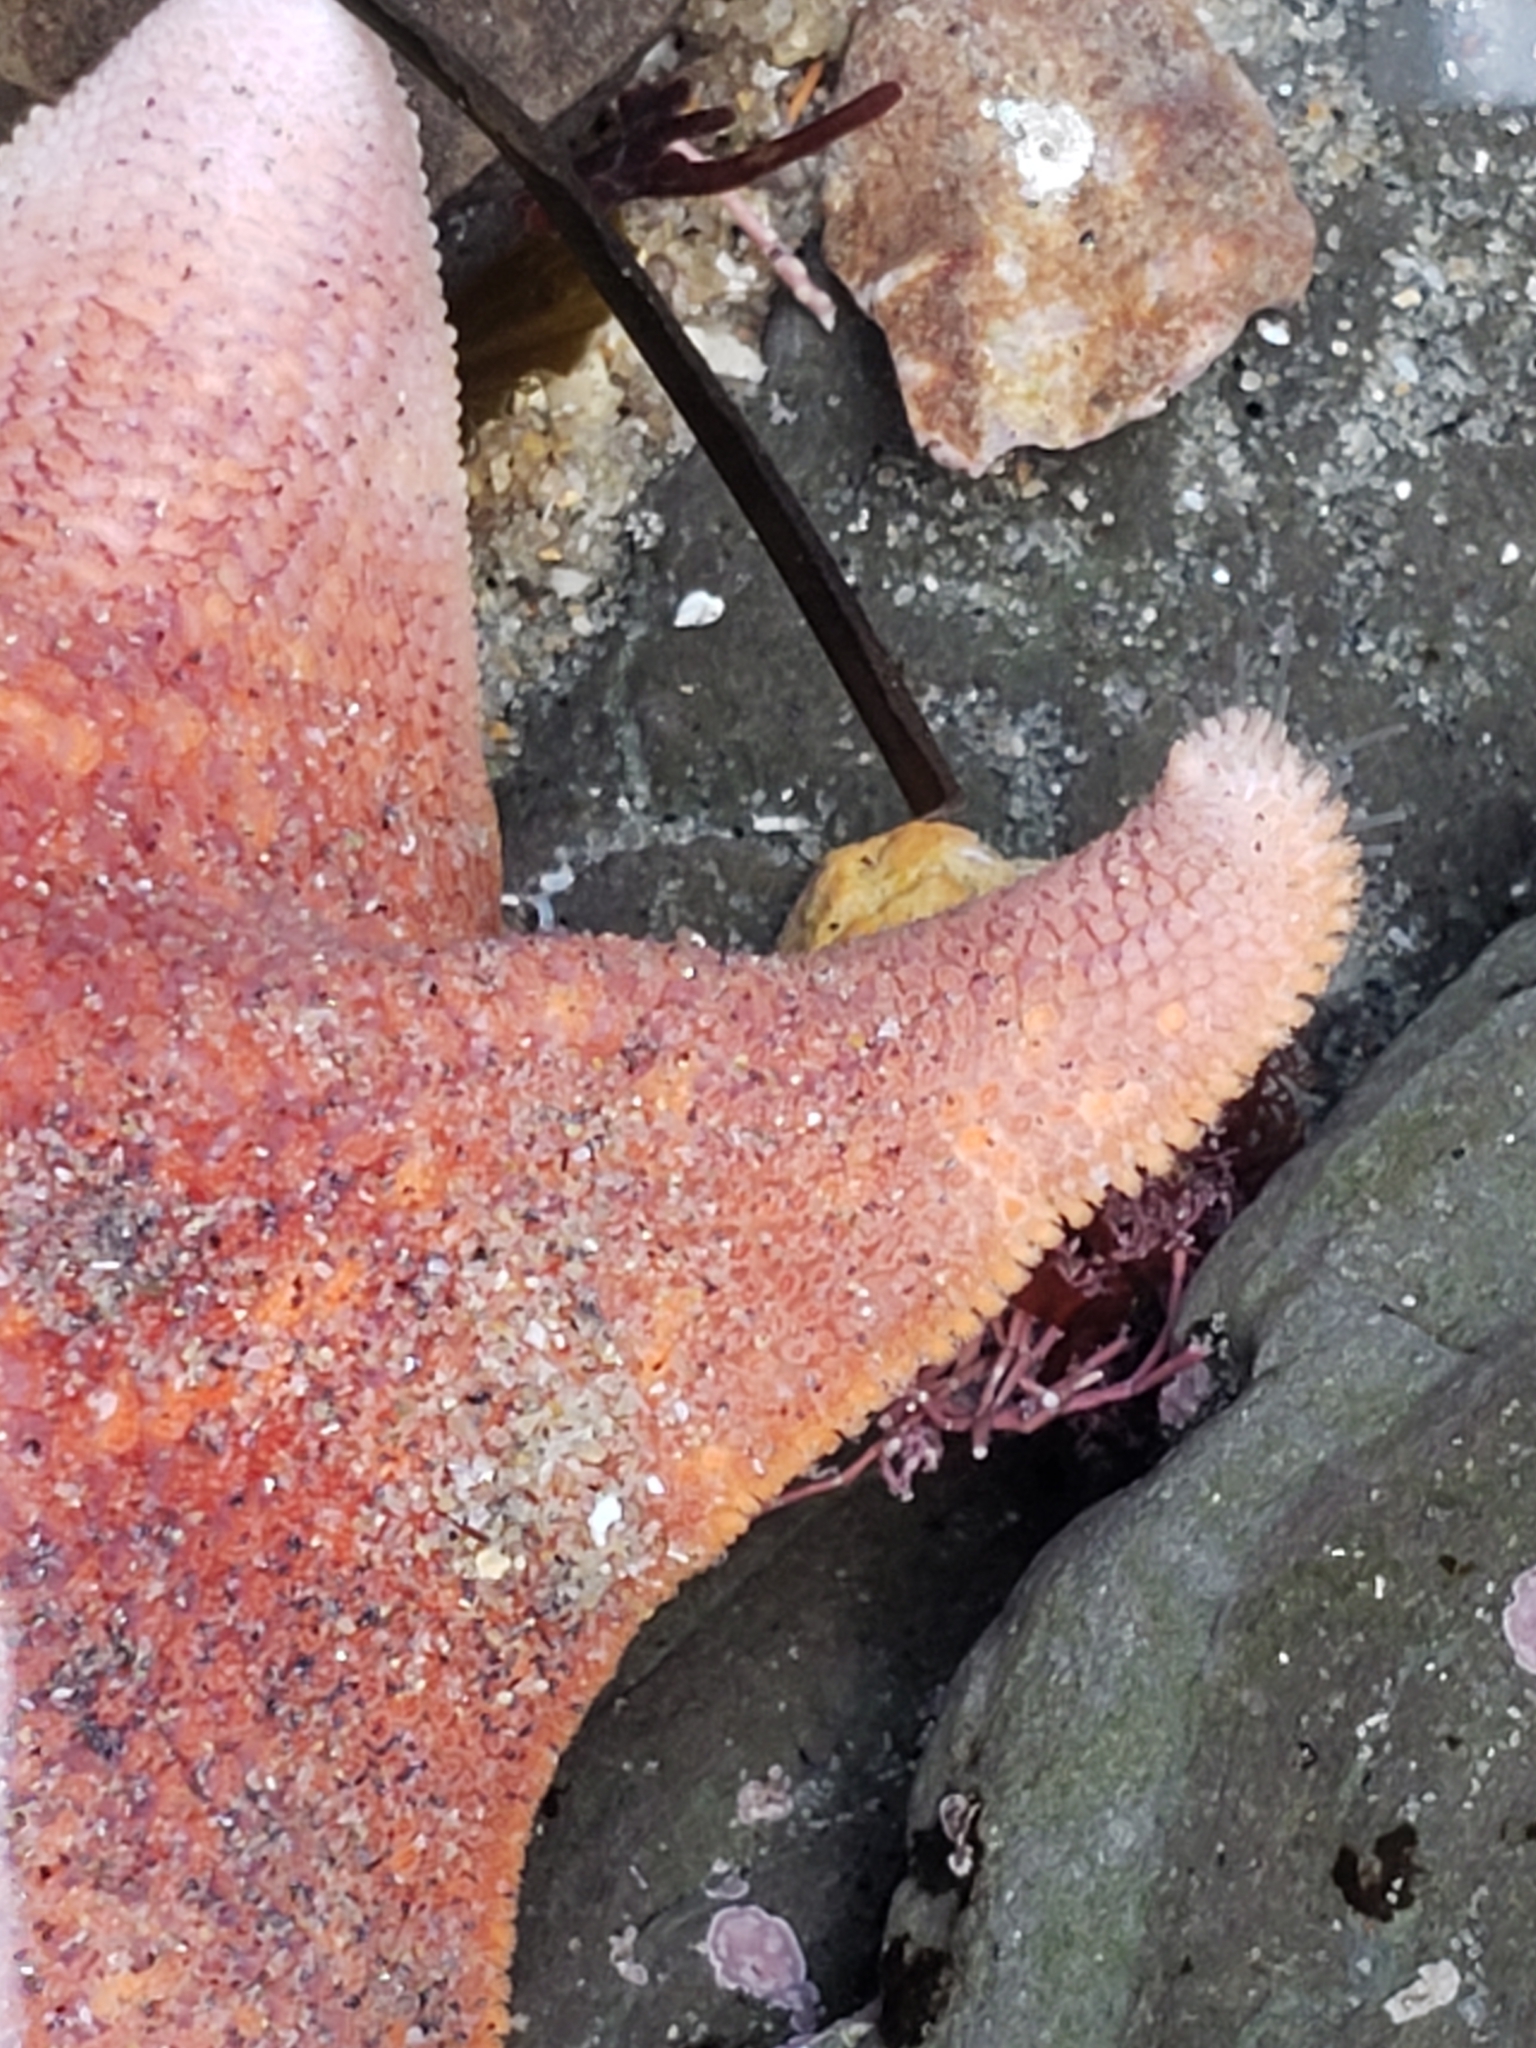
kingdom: Animalia
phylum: Echinodermata
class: Asteroidea
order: Valvatida
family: Asterinidae
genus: Patiria
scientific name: Patiria miniata
